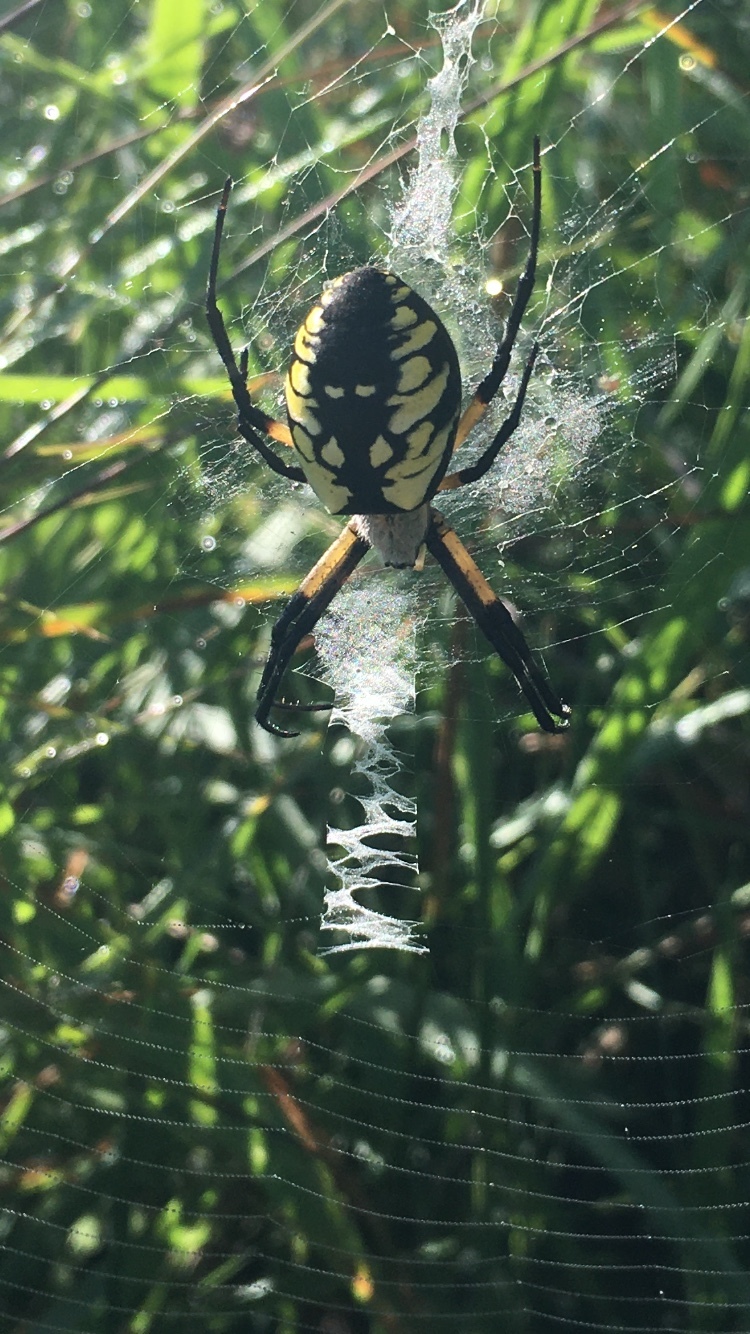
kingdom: Animalia
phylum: Arthropoda
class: Arachnida
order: Araneae
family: Araneidae
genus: Argiope
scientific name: Argiope aurantia
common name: Orb weavers
